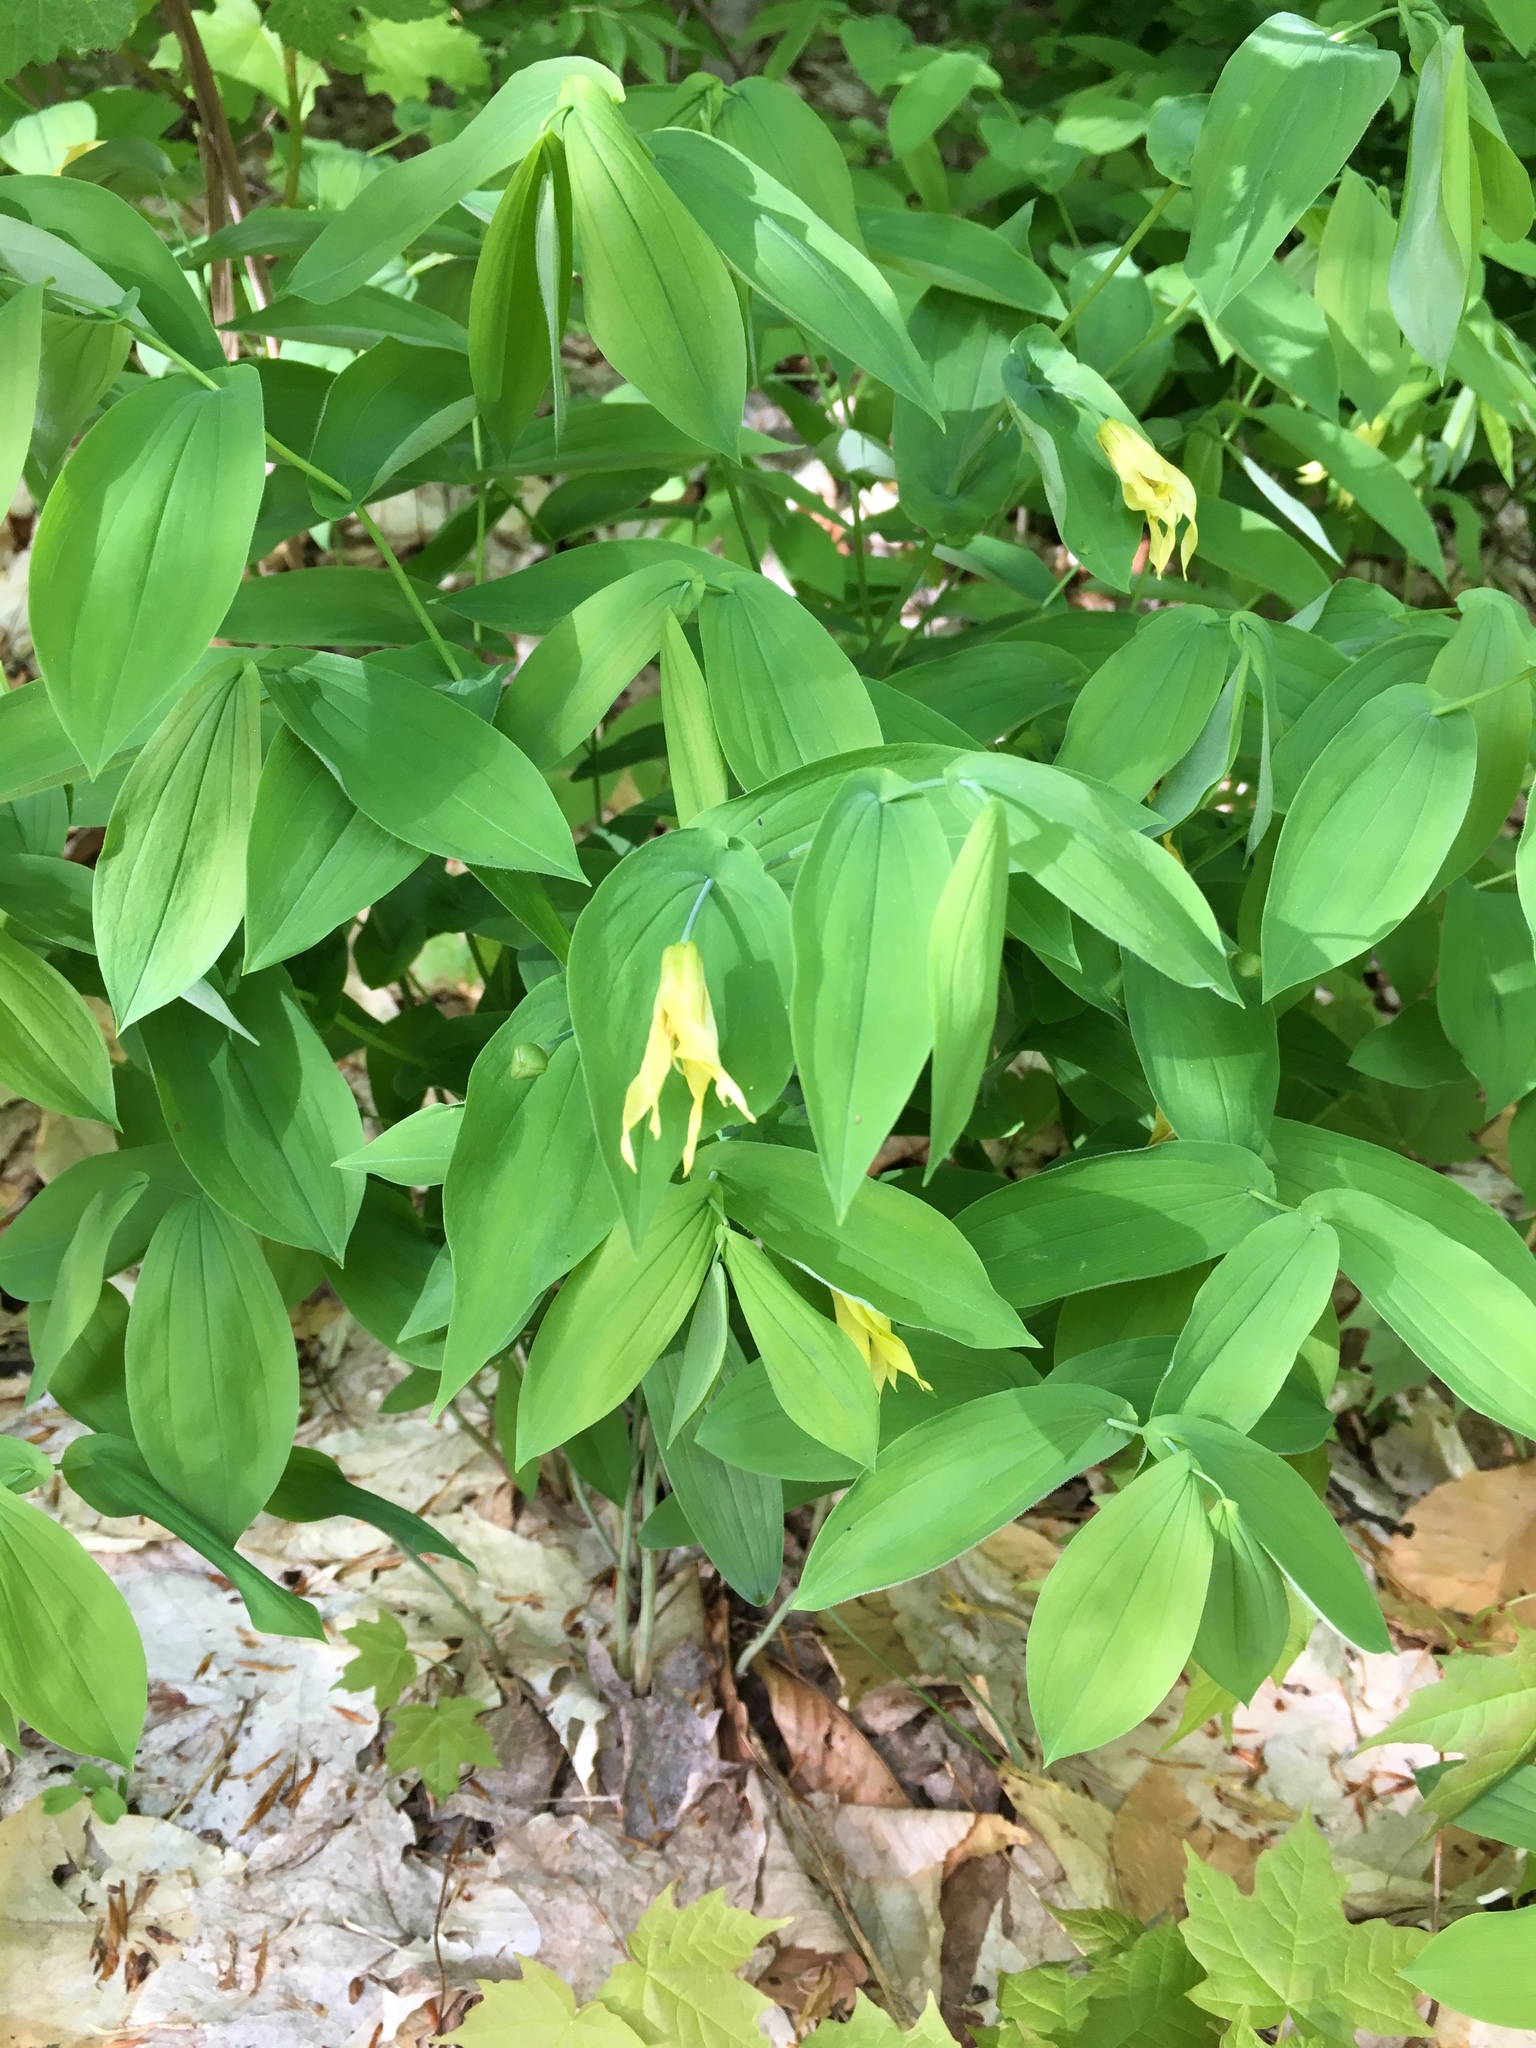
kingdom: Plantae
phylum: Tracheophyta
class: Liliopsida
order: Liliales
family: Colchicaceae
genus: Uvularia
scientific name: Uvularia grandiflora
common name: Bellwort
